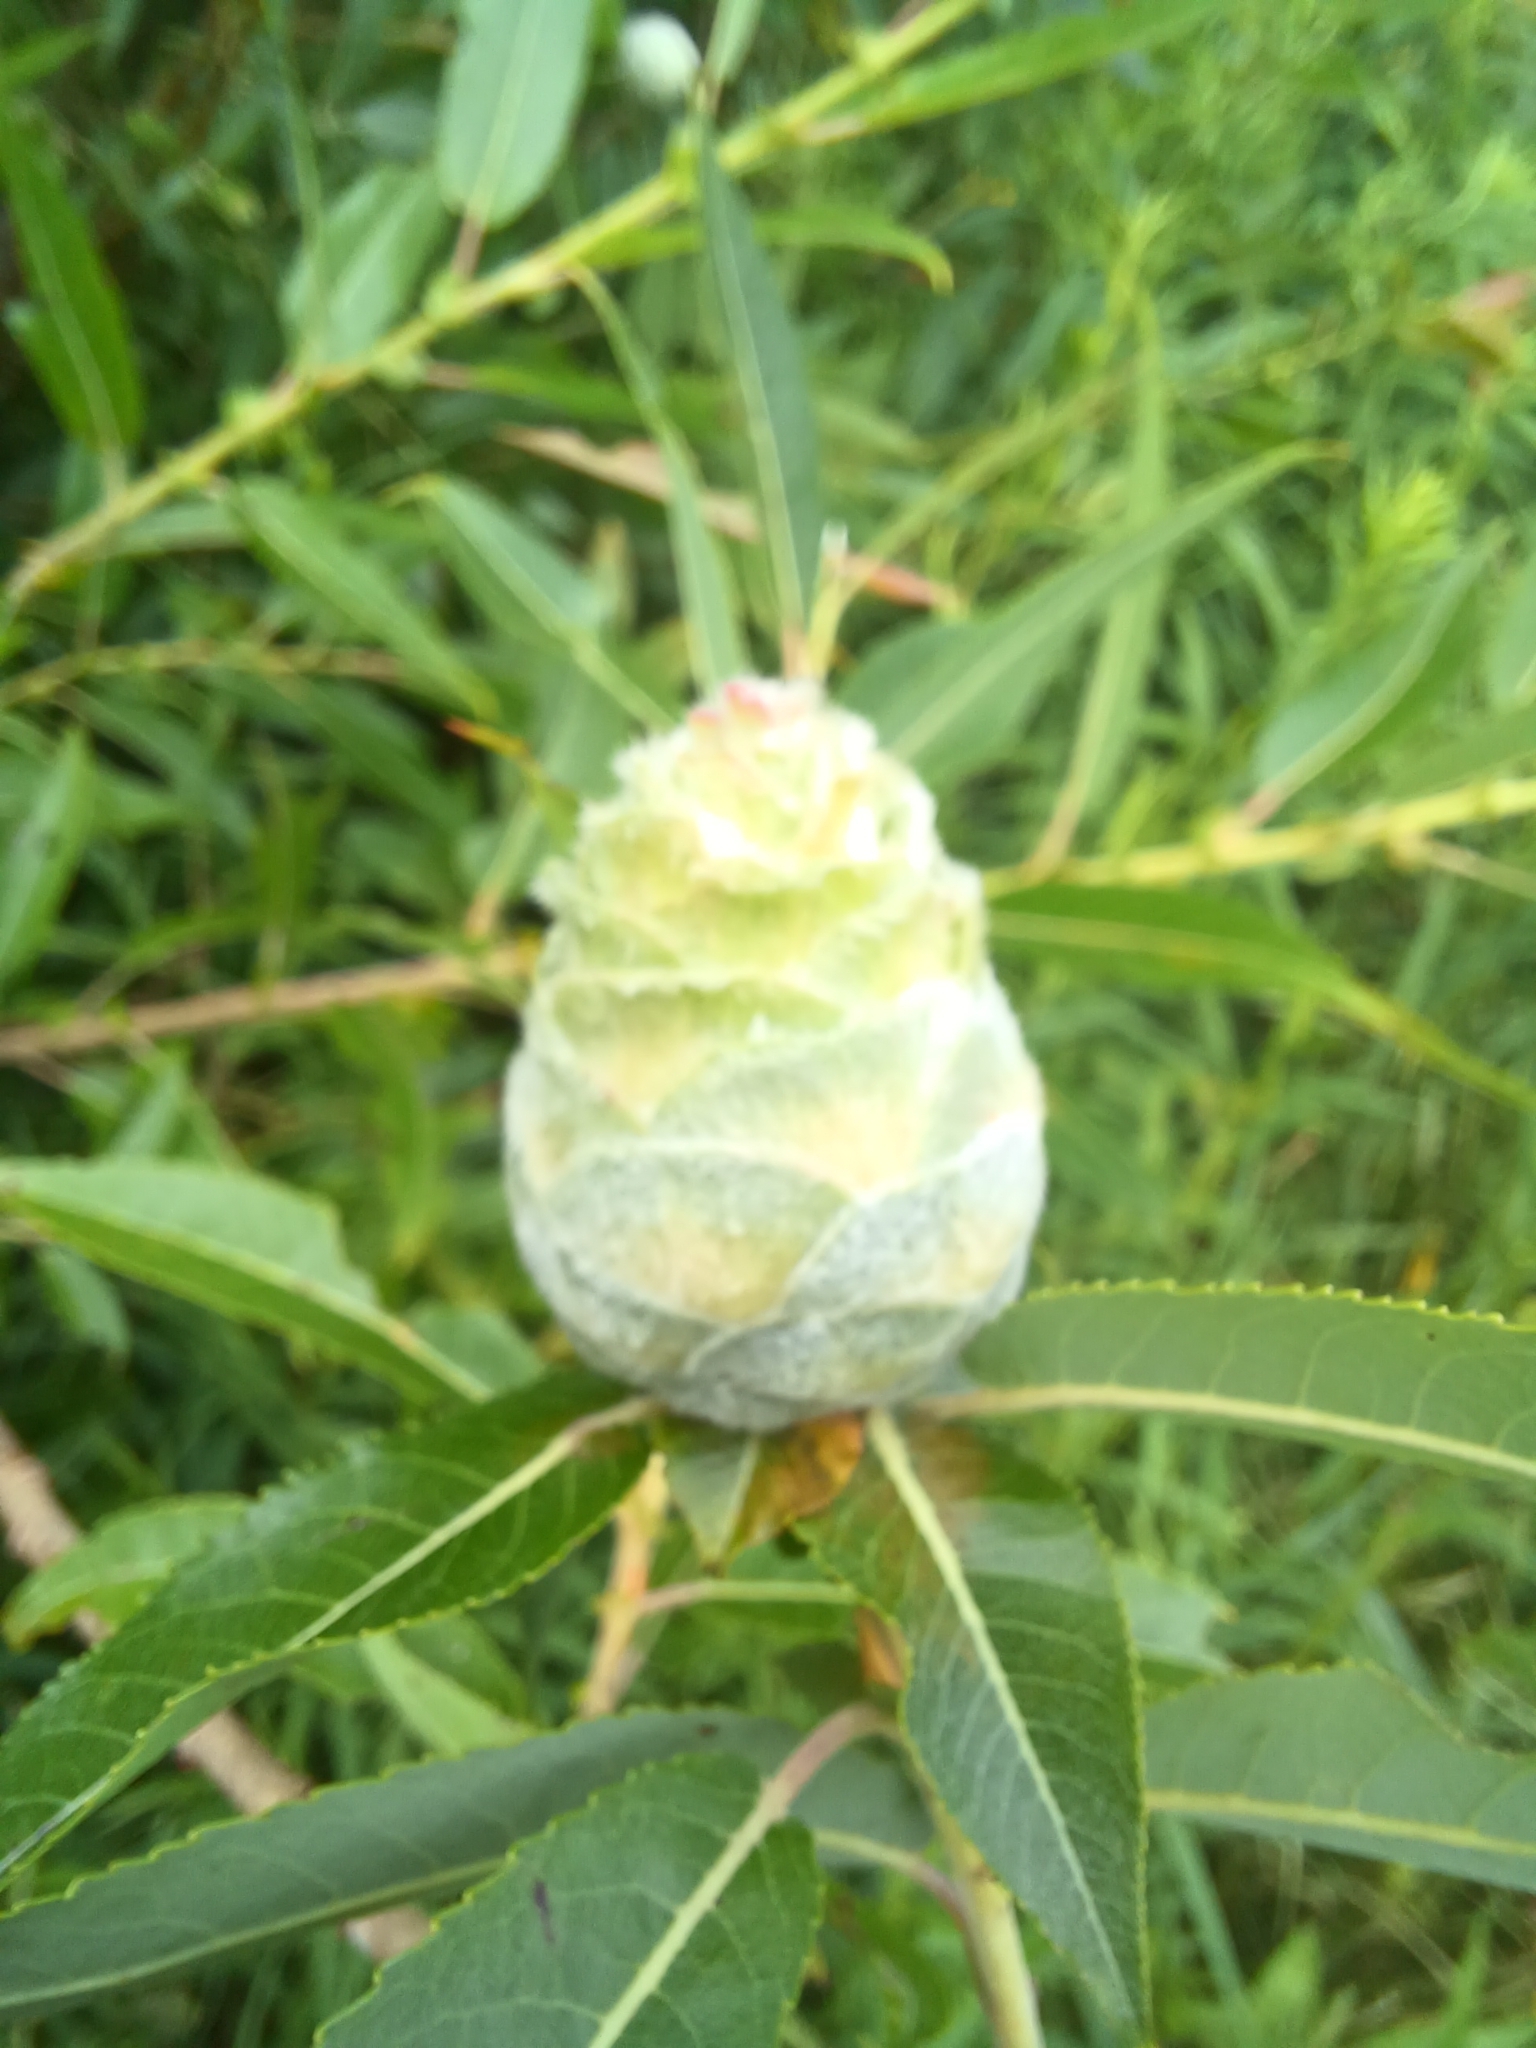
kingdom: Animalia
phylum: Arthropoda
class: Insecta
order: Diptera
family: Cecidomyiidae
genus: Rabdophaga
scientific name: Rabdophaga strobiloides
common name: Willow pinecone gall midge
